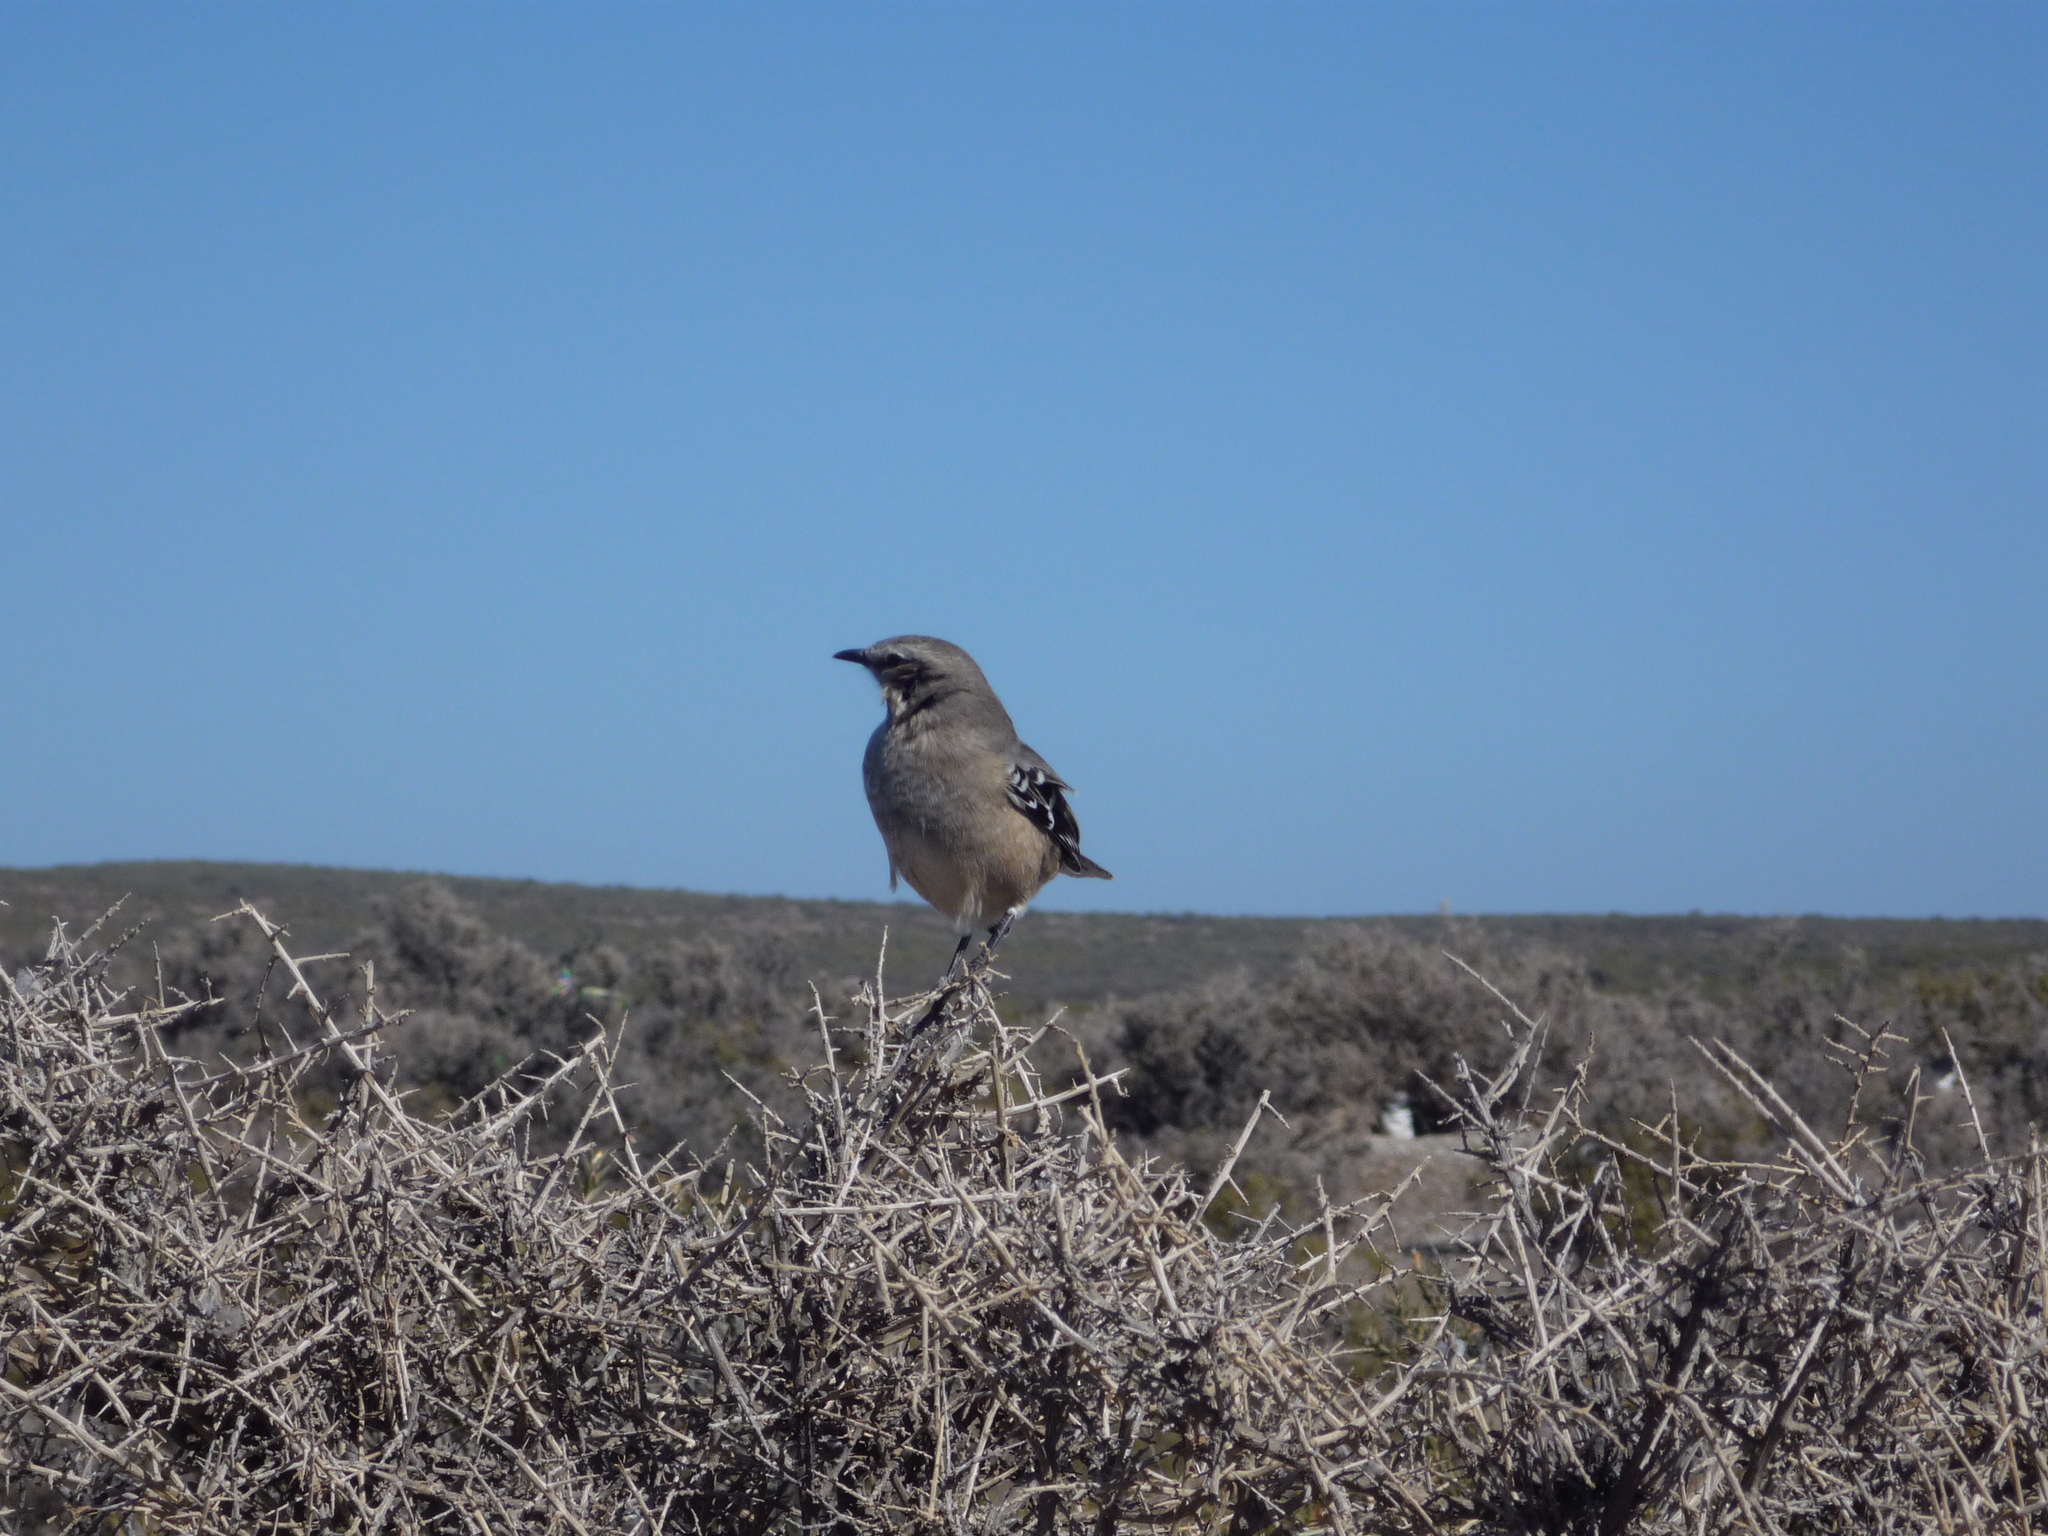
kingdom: Animalia
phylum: Chordata
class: Aves
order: Passeriformes
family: Mimidae
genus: Mimus
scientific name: Mimus patagonicus
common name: Patagonian mockingbird
